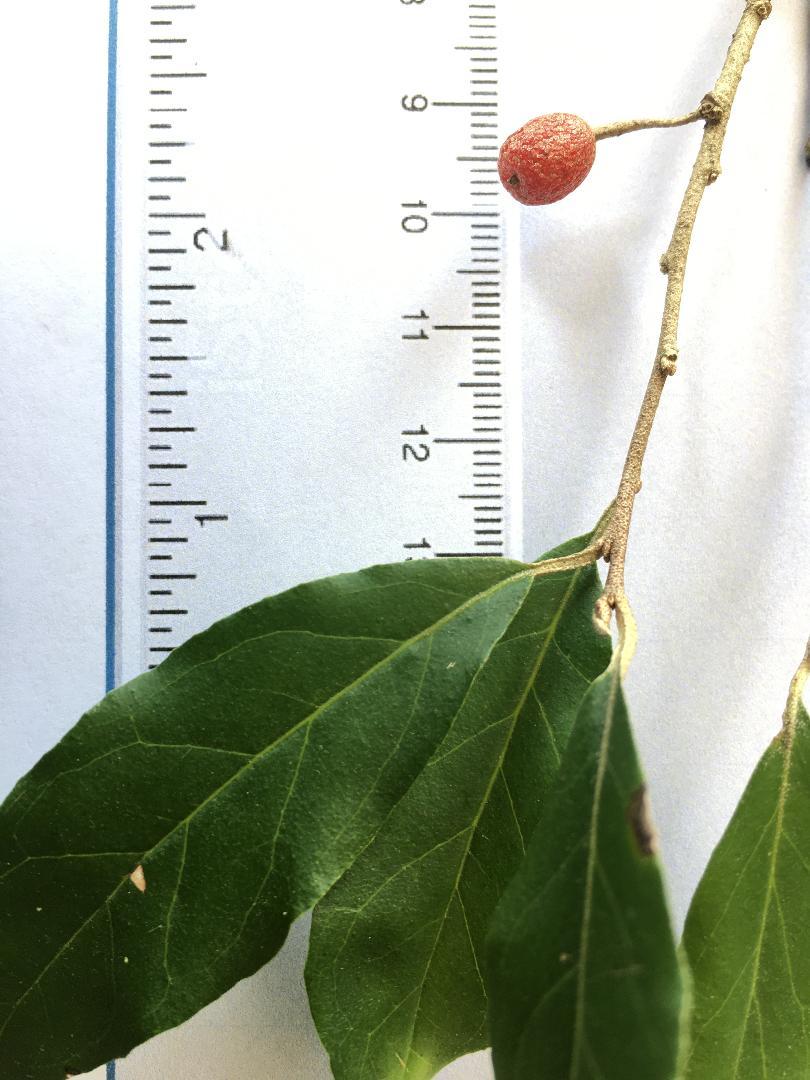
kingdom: Plantae
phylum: Tracheophyta
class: Magnoliopsida
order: Rosales
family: Elaeagnaceae
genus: Elaeagnus
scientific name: Elaeagnus umbellata
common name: Autumn olive
